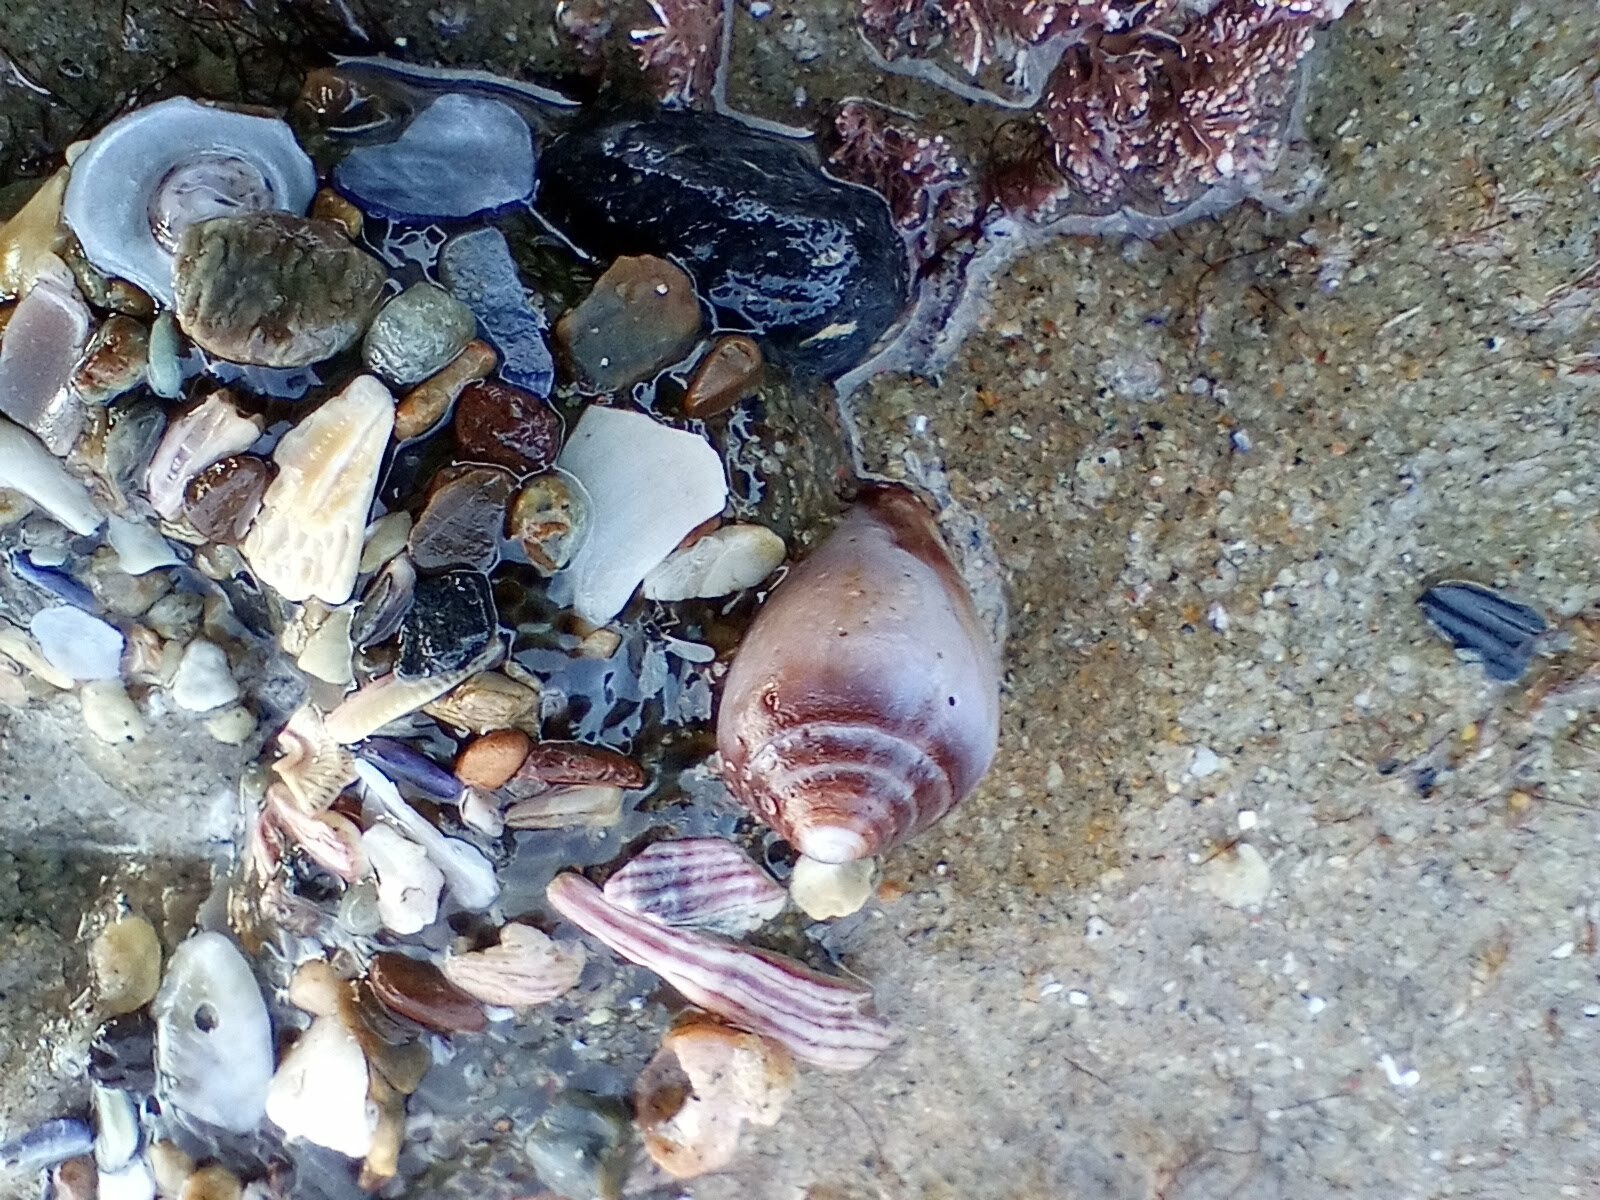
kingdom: Animalia
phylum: Mollusca
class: Gastropoda
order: Neogastropoda
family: Conidae
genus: Californiconus
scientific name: Californiconus californicus
